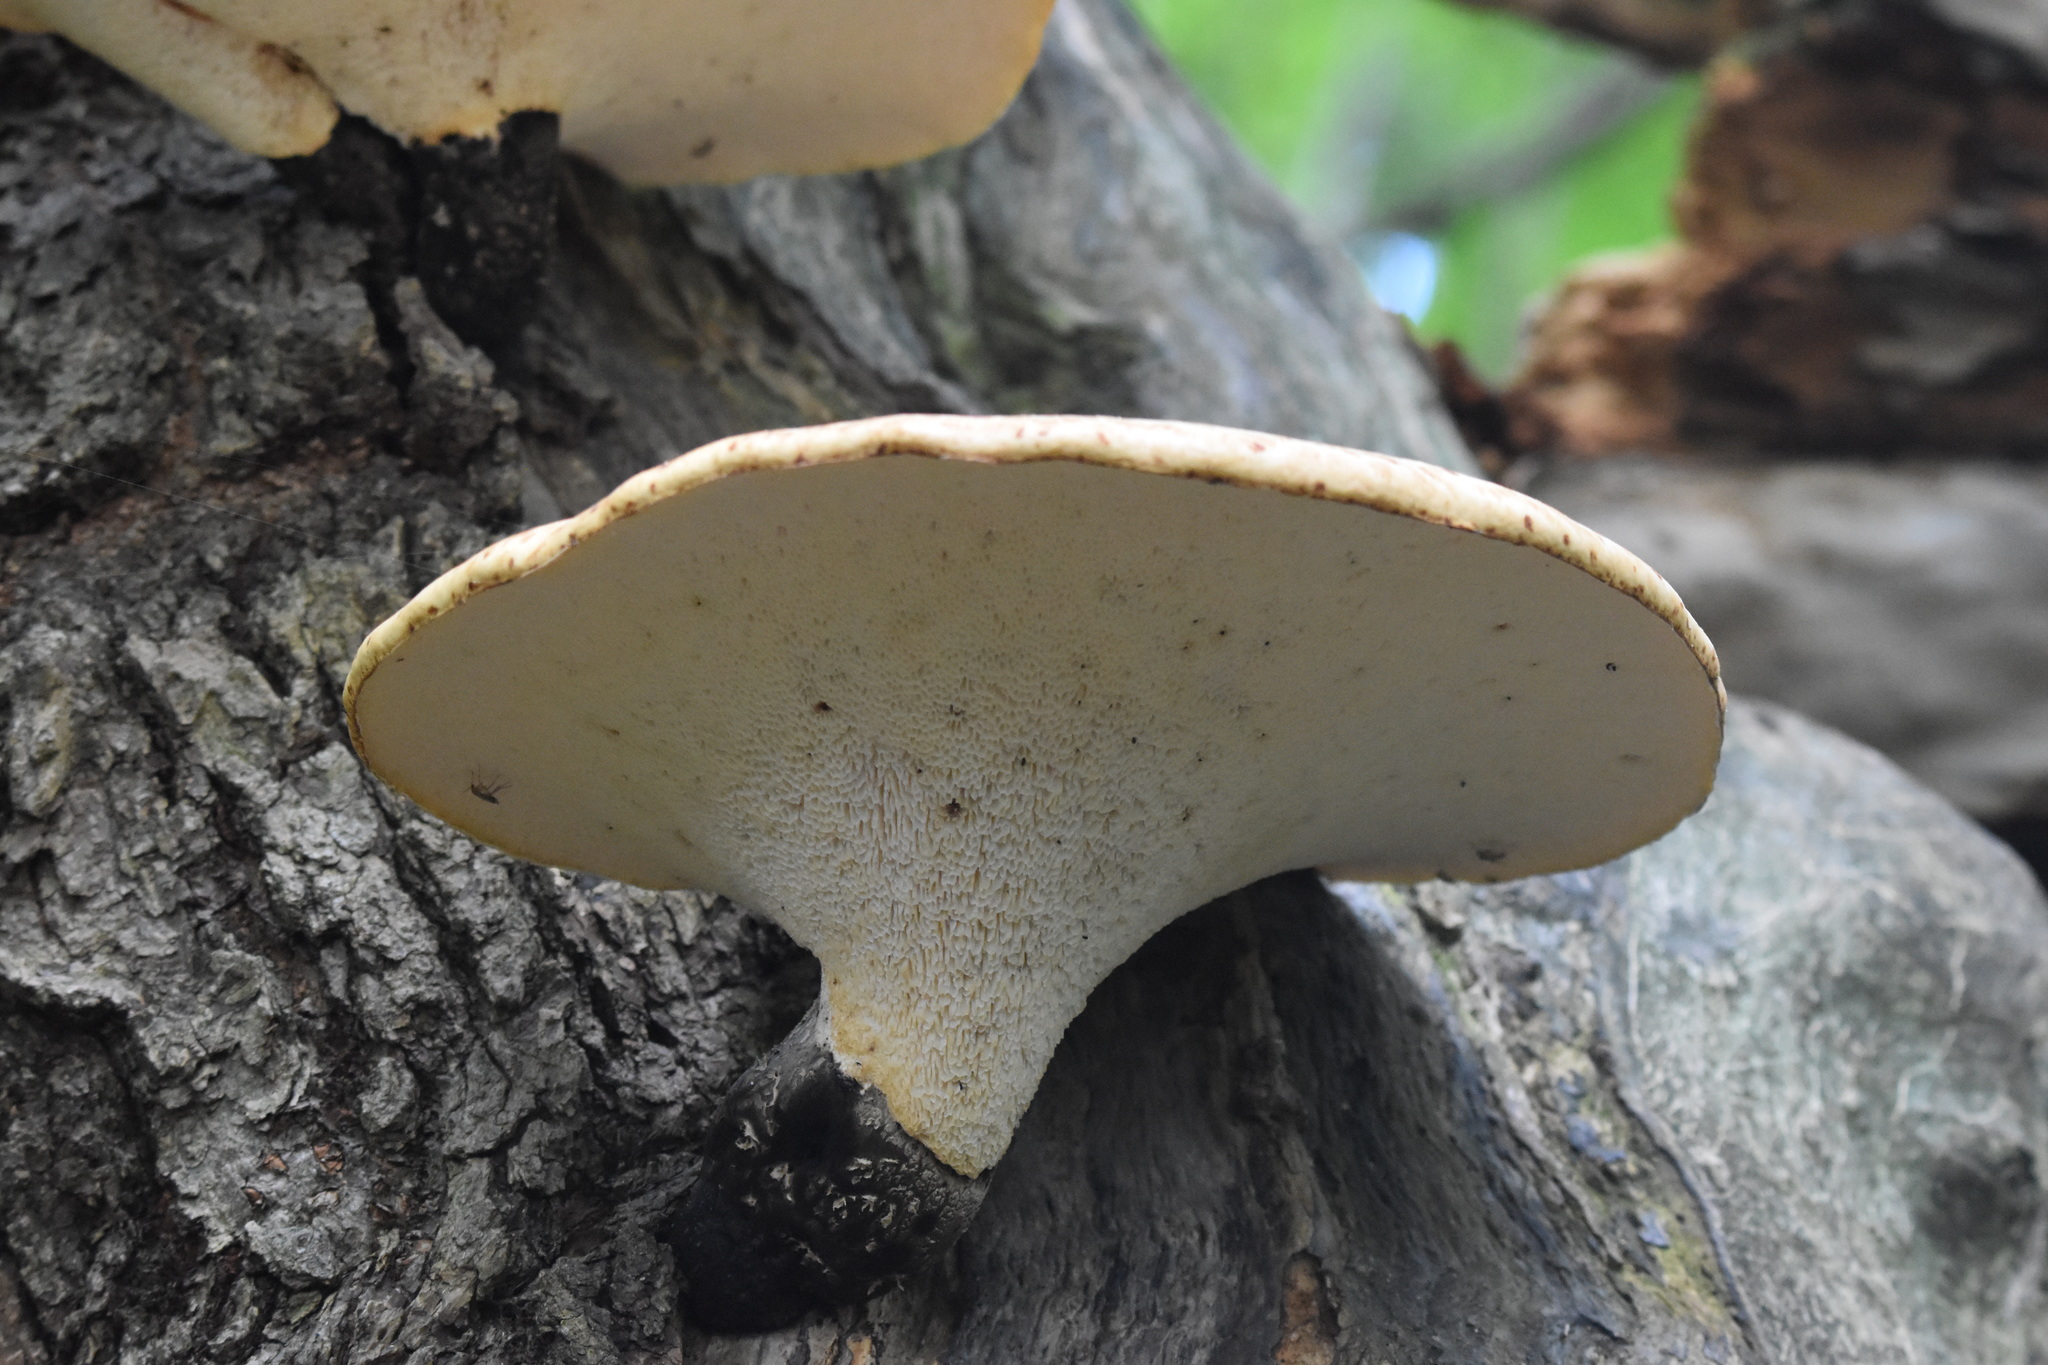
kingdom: Fungi
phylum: Basidiomycota
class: Agaricomycetes
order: Polyporales
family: Polyporaceae
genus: Cerioporus
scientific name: Cerioporus squamosus
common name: Dryad's saddle
